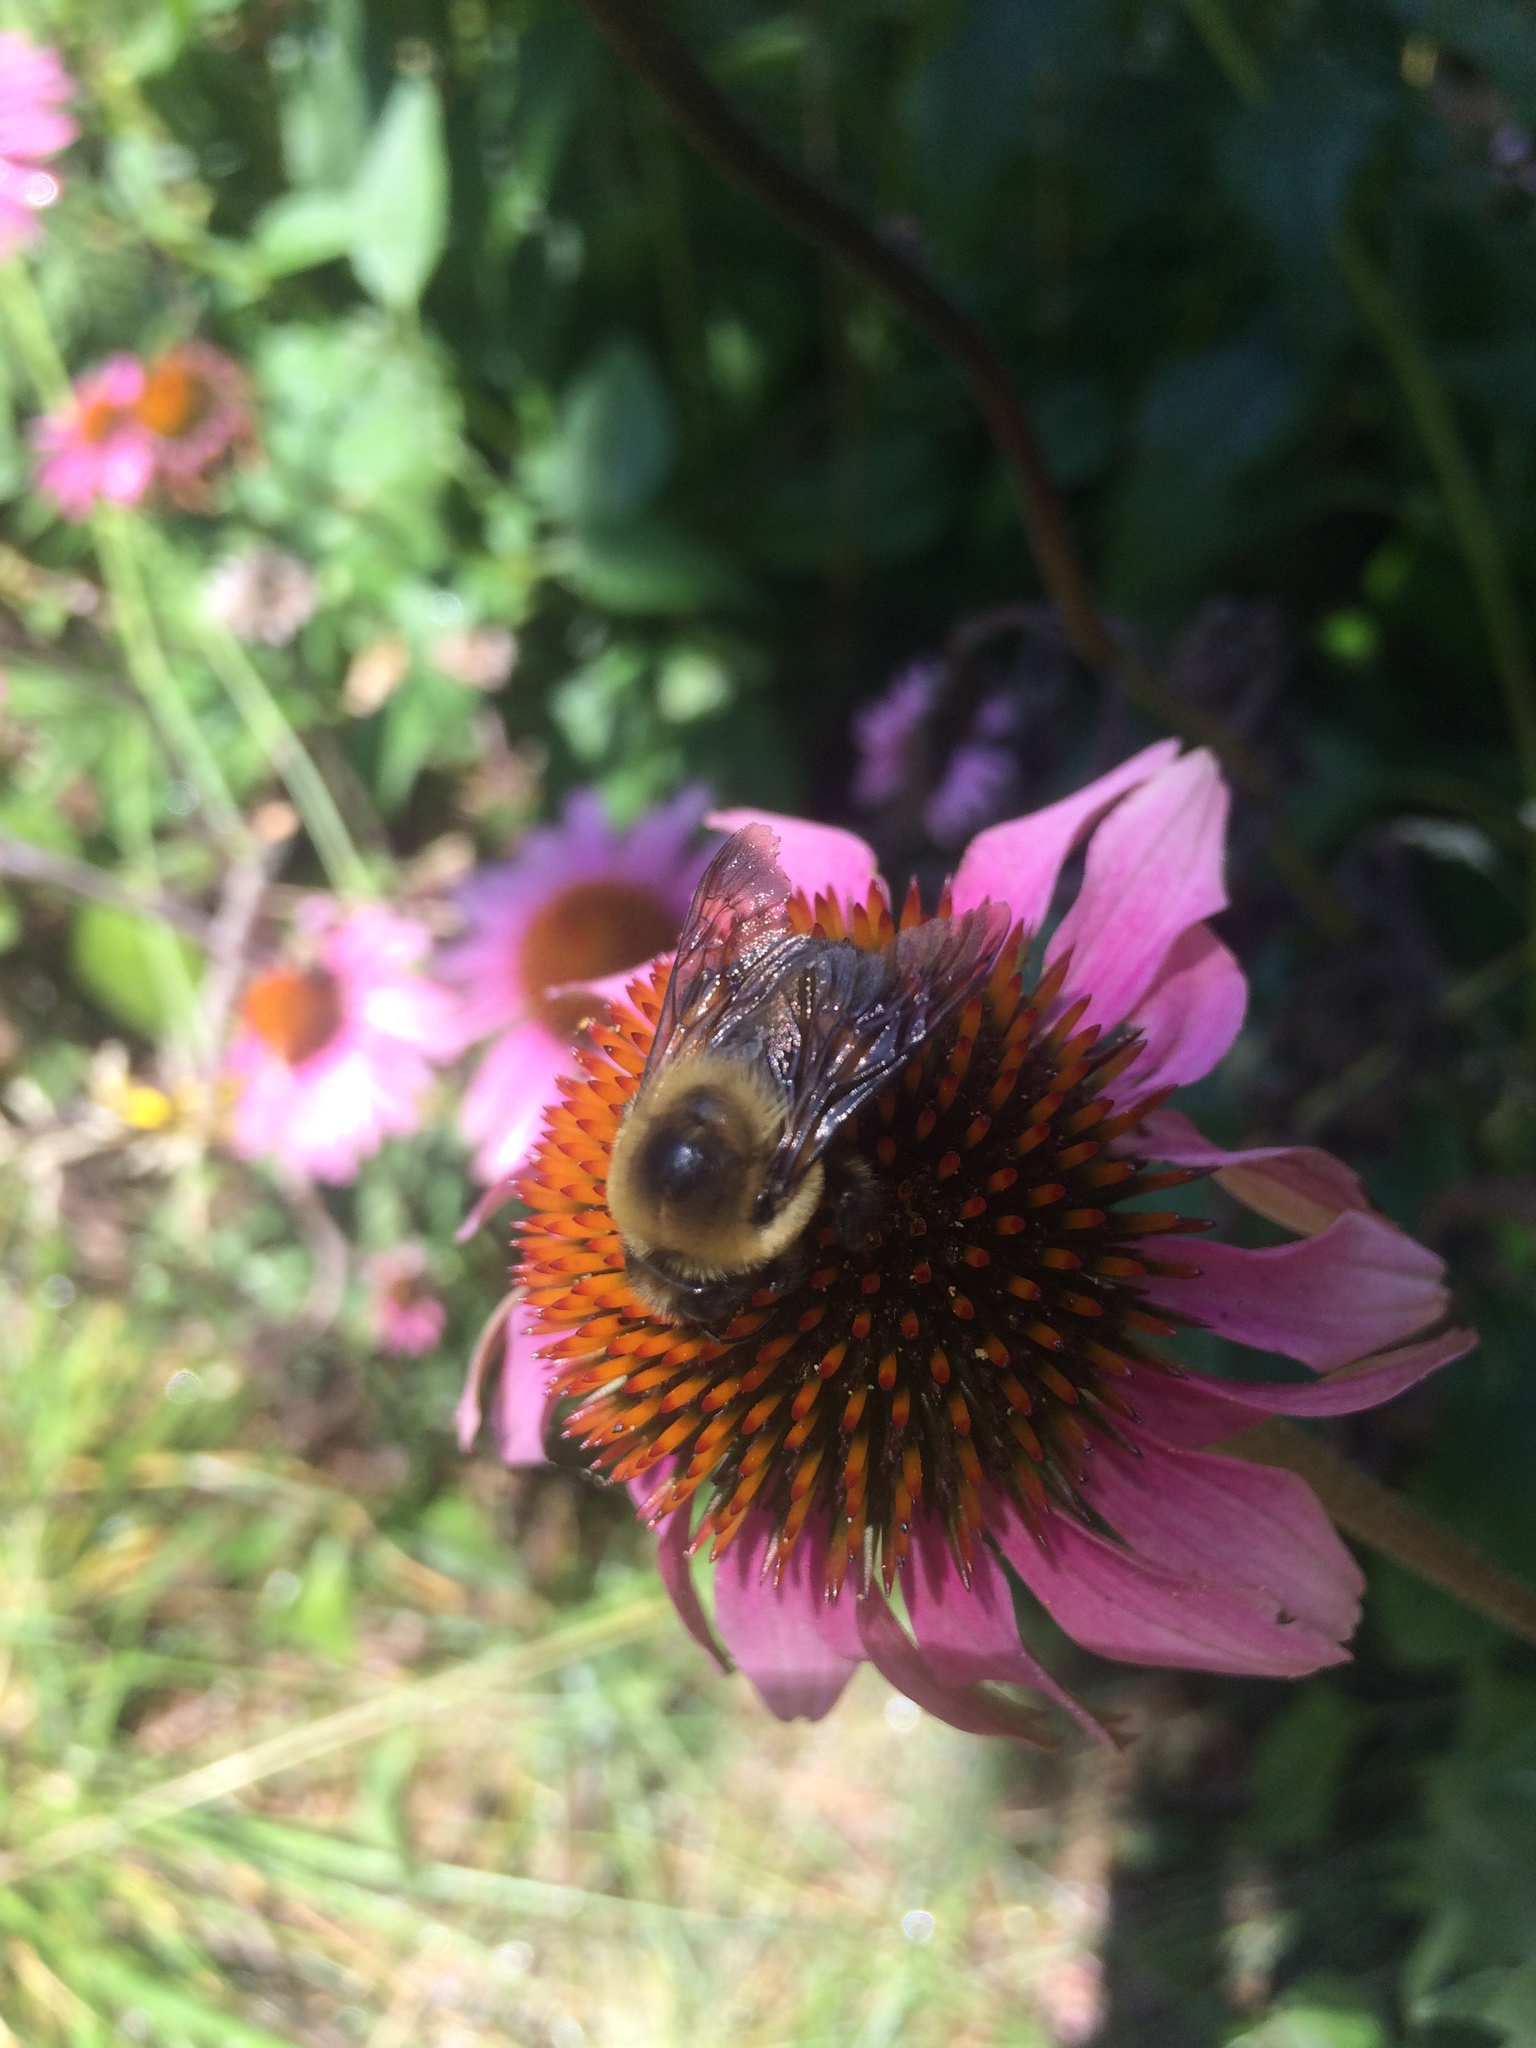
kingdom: Animalia
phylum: Arthropoda
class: Insecta
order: Hymenoptera
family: Apidae
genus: Bombus
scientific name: Bombus griseocollis
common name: Brown-belted bumble bee
